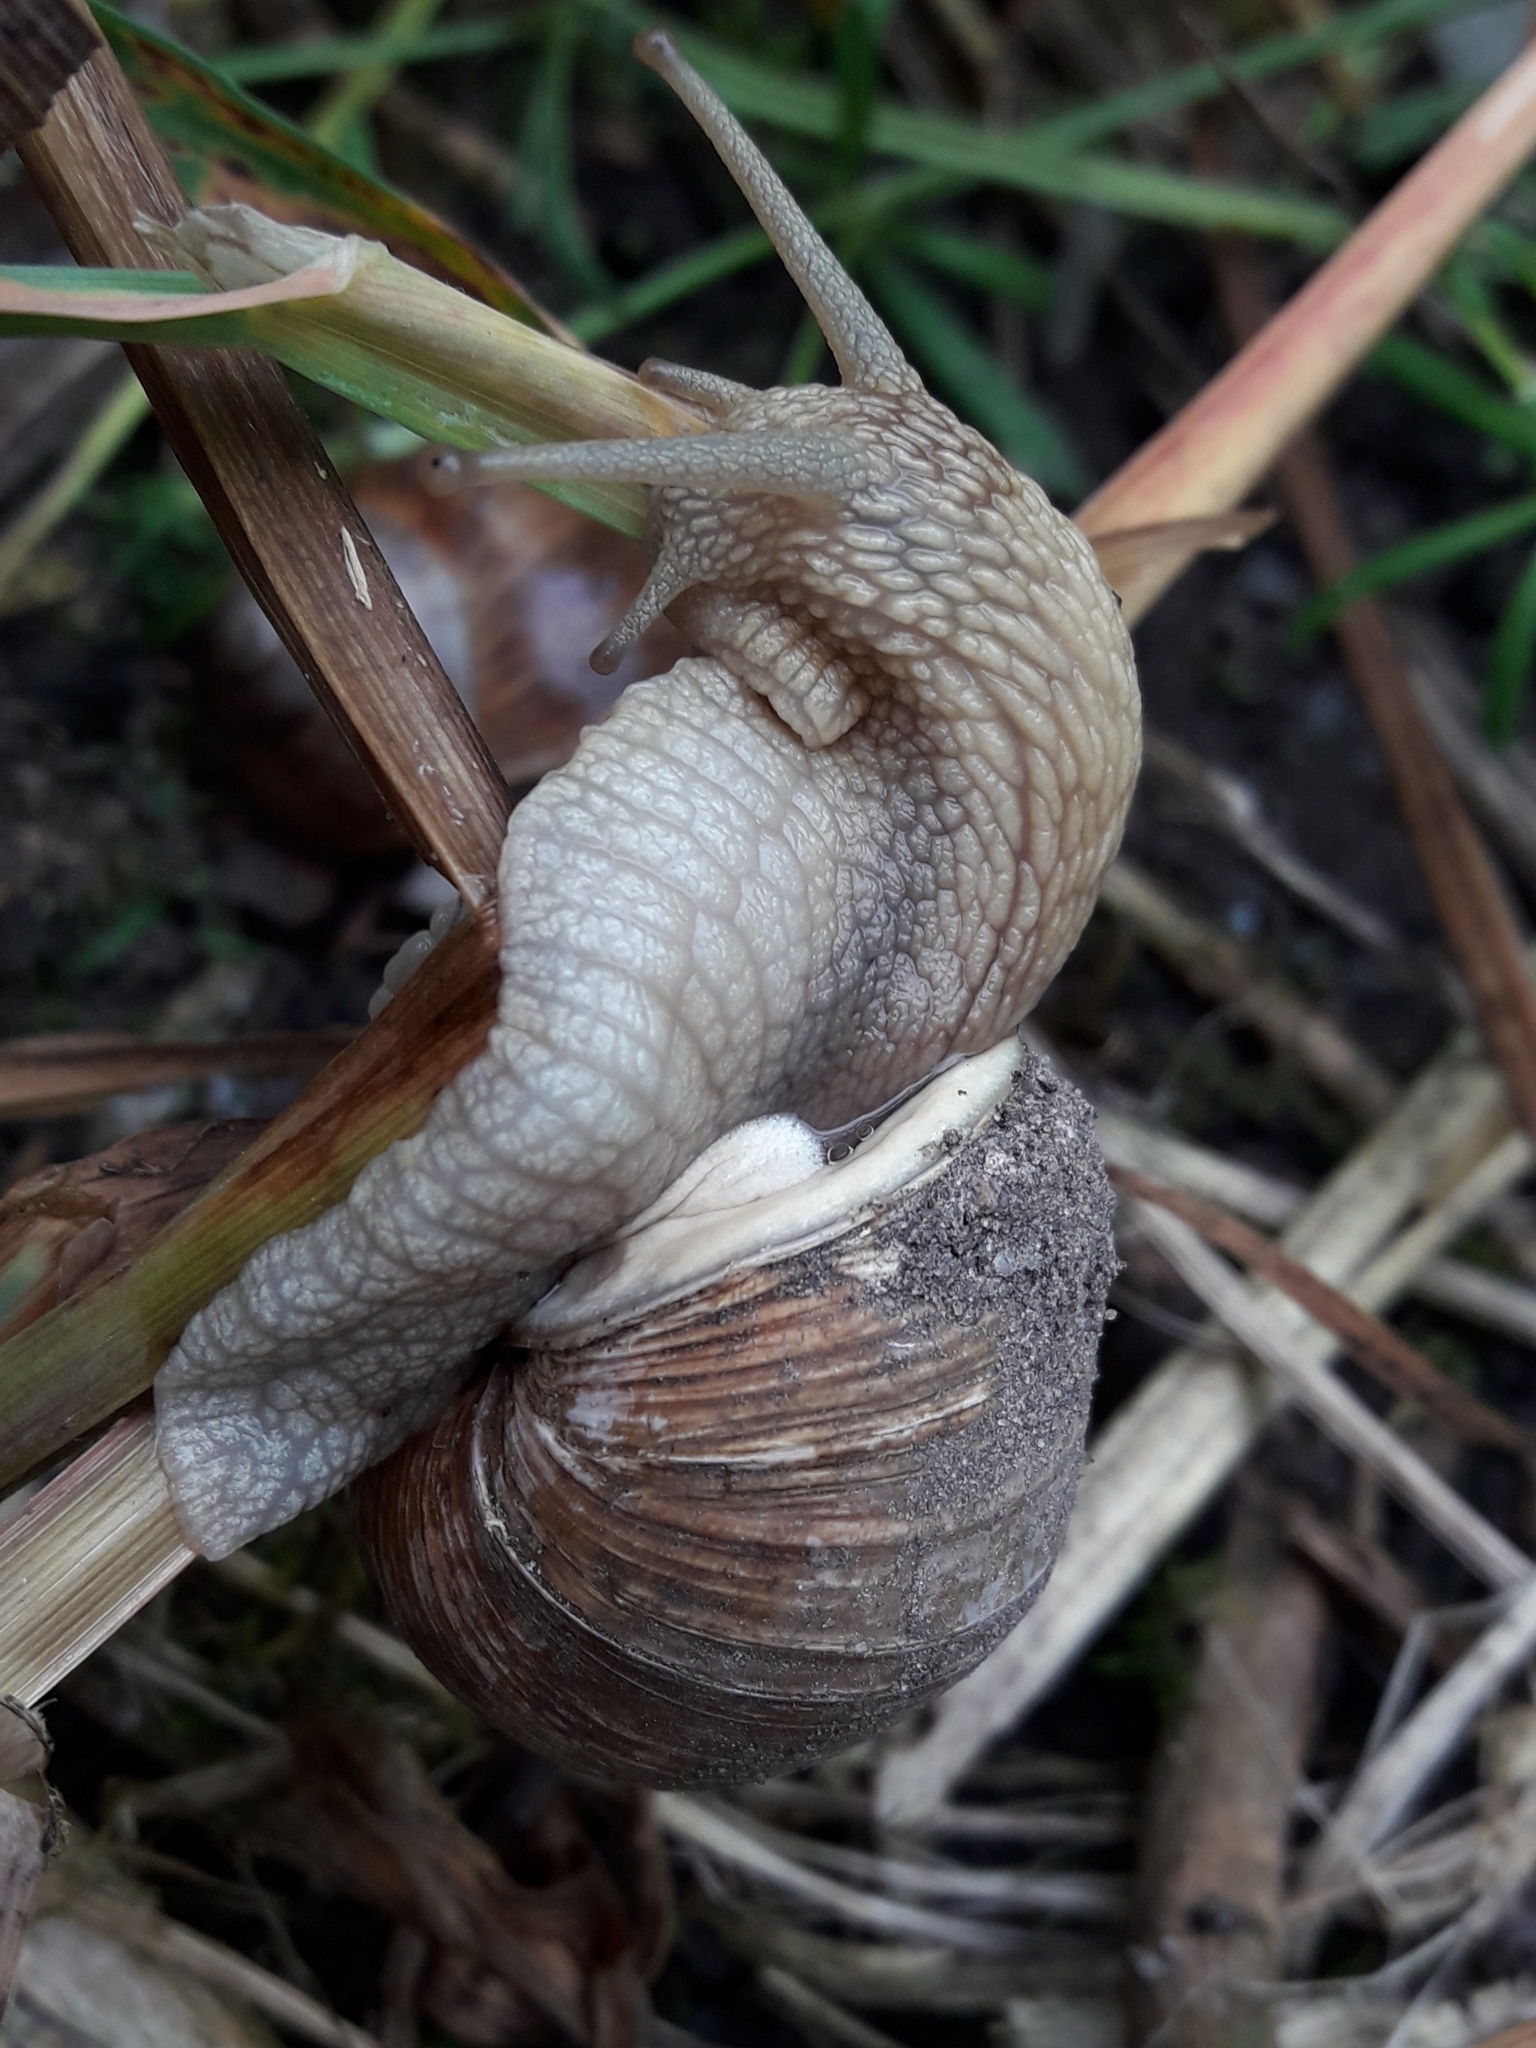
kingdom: Animalia
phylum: Mollusca
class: Gastropoda
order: Stylommatophora
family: Helicidae
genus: Helix
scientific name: Helix pomatia
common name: Roman snail
